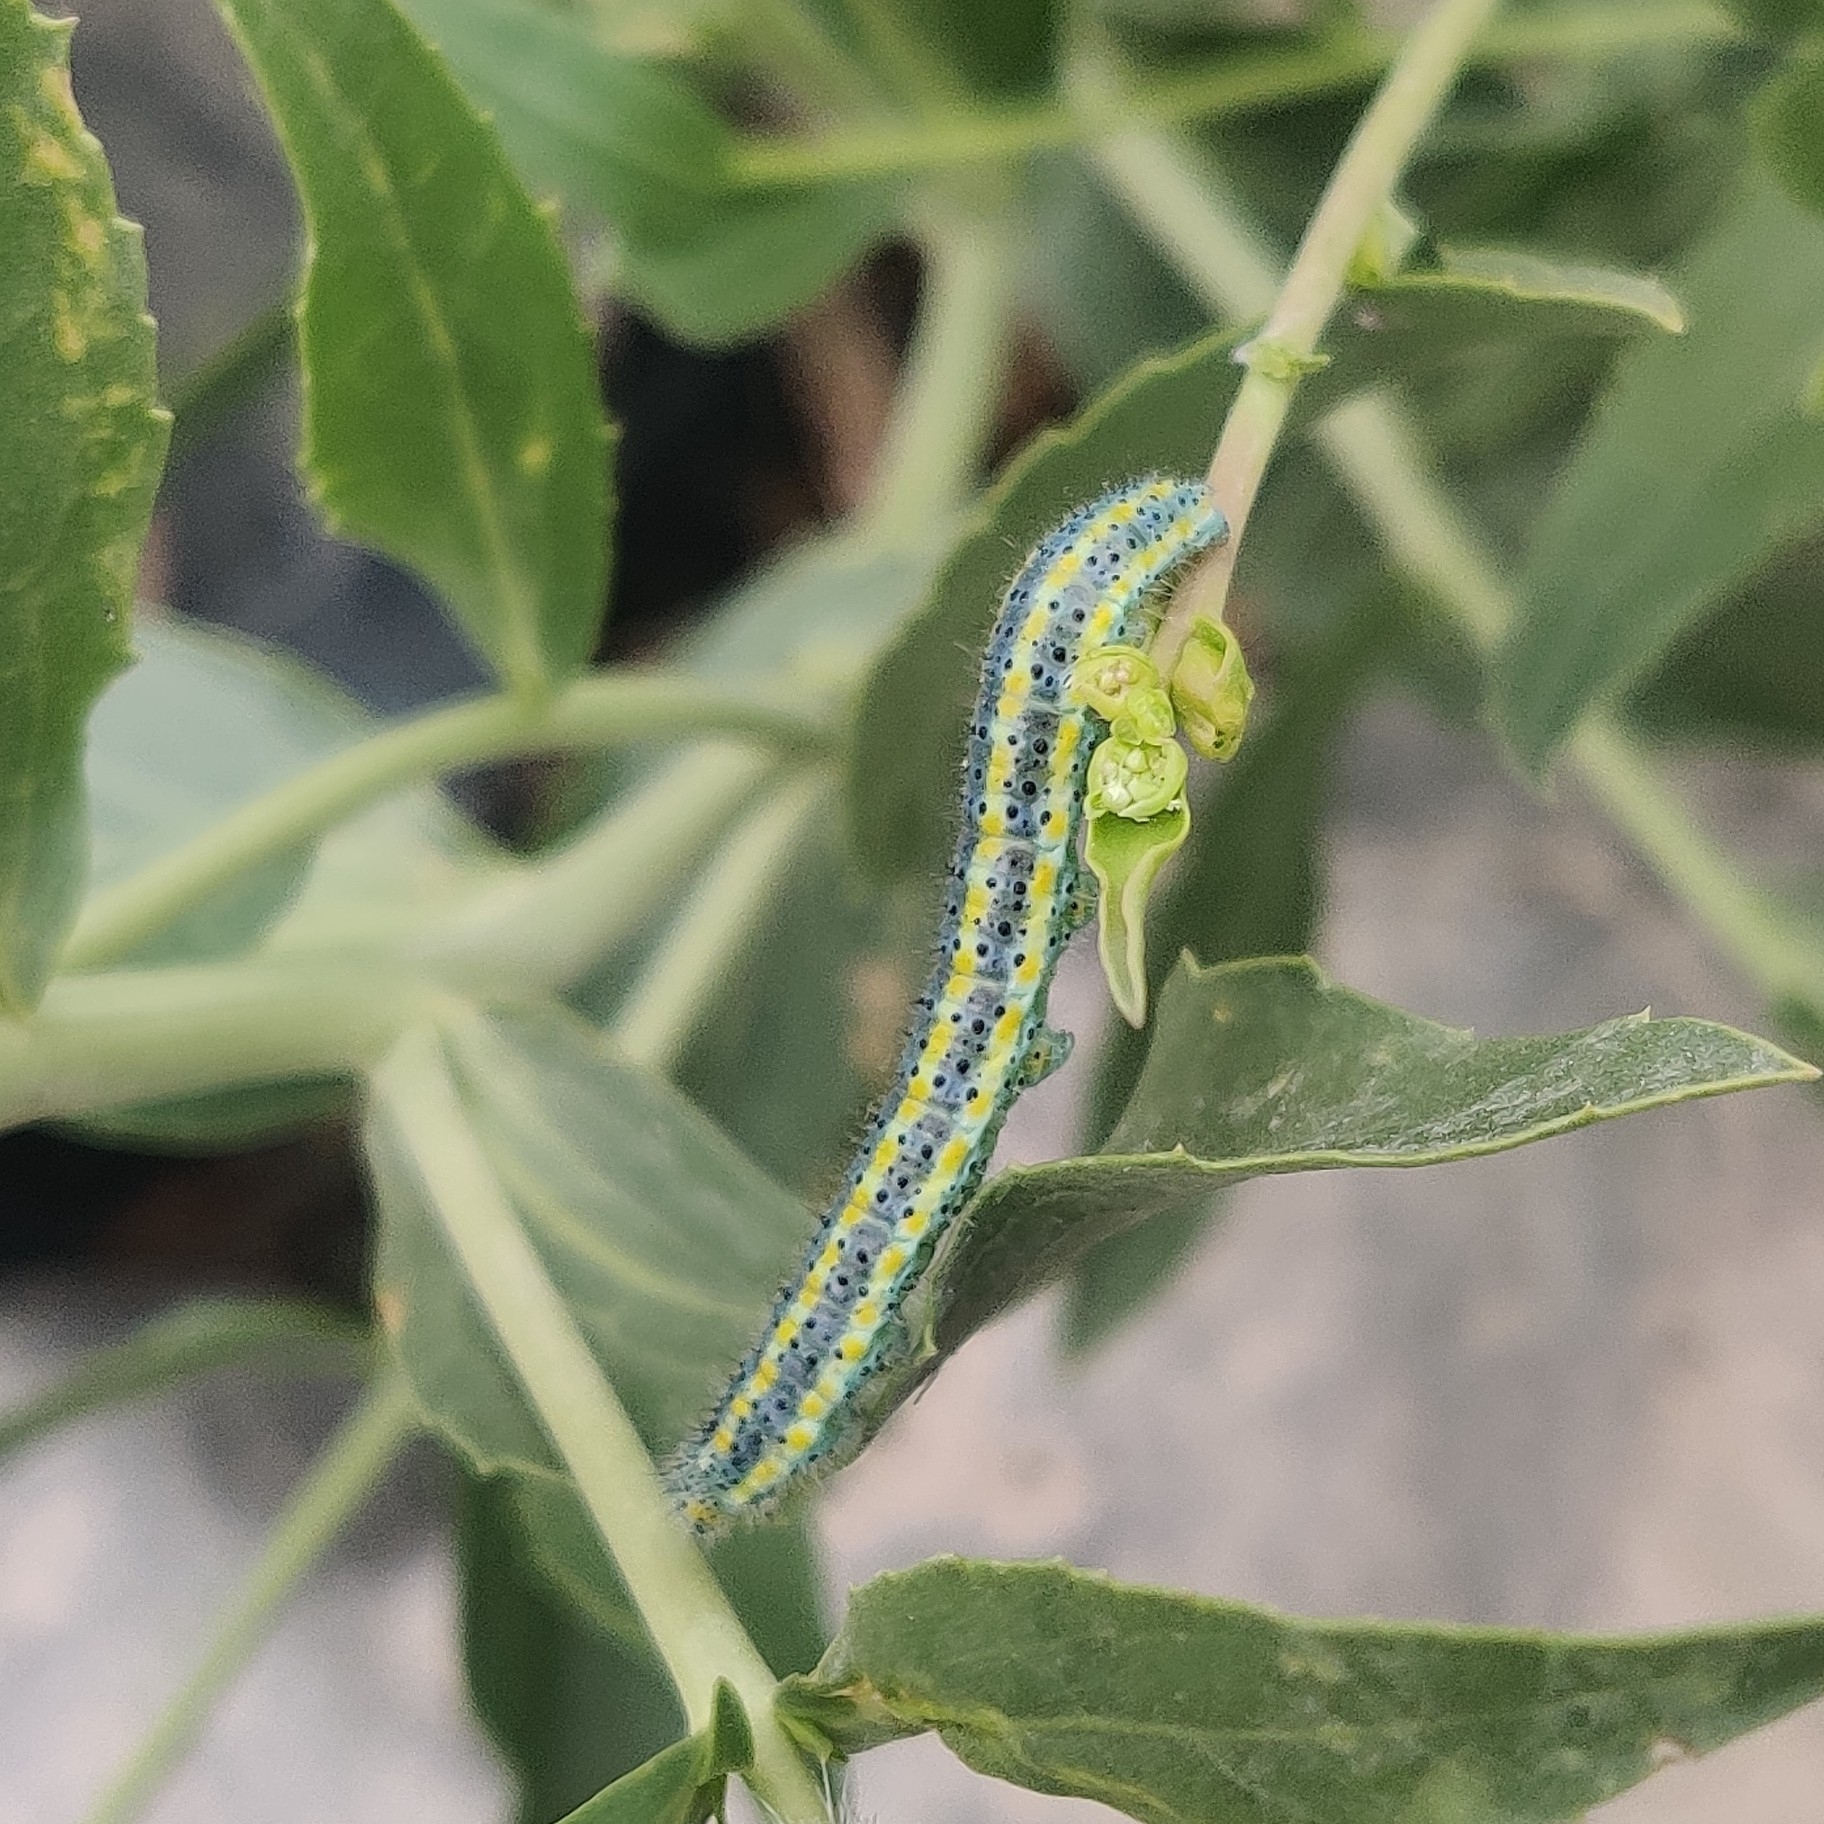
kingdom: Animalia
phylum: Arthropoda
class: Insecta
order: Lepidoptera
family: Pieridae
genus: Pontia
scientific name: Pontia edusa
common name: Eastern bath white
